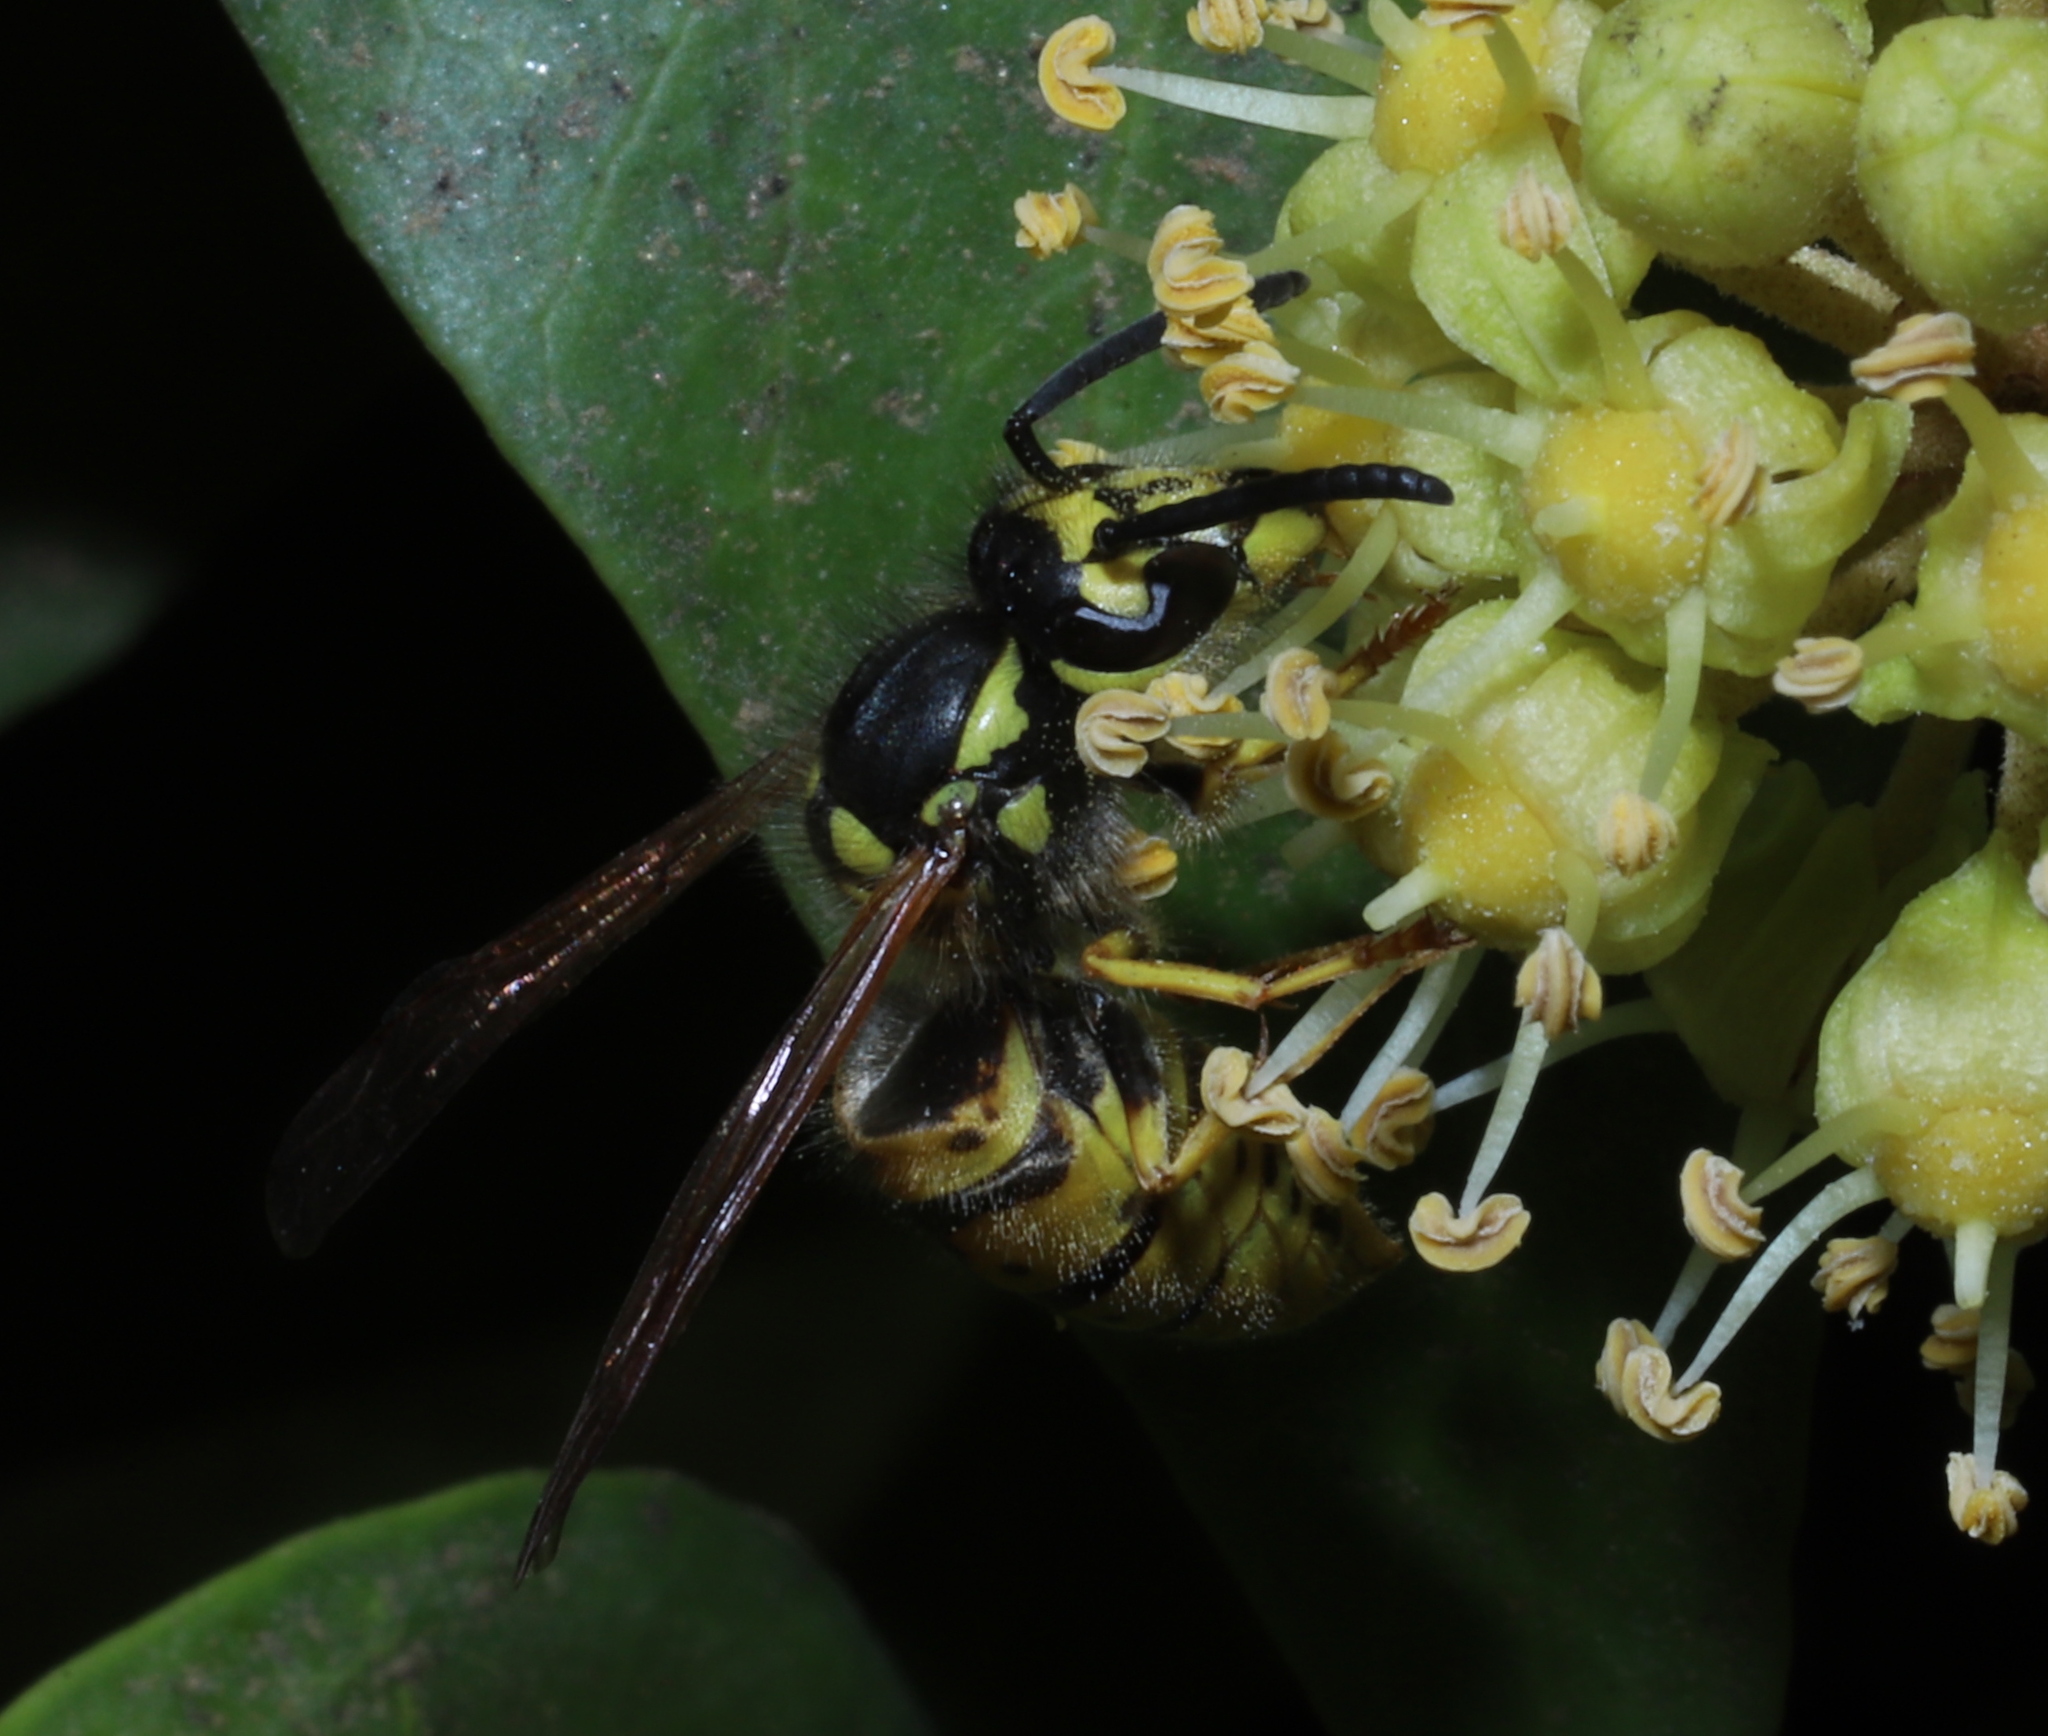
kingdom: Animalia
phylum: Arthropoda
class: Insecta
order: Hymenoptera
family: Vespidae
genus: Vespula
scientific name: Vespula germanica
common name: German wasp
